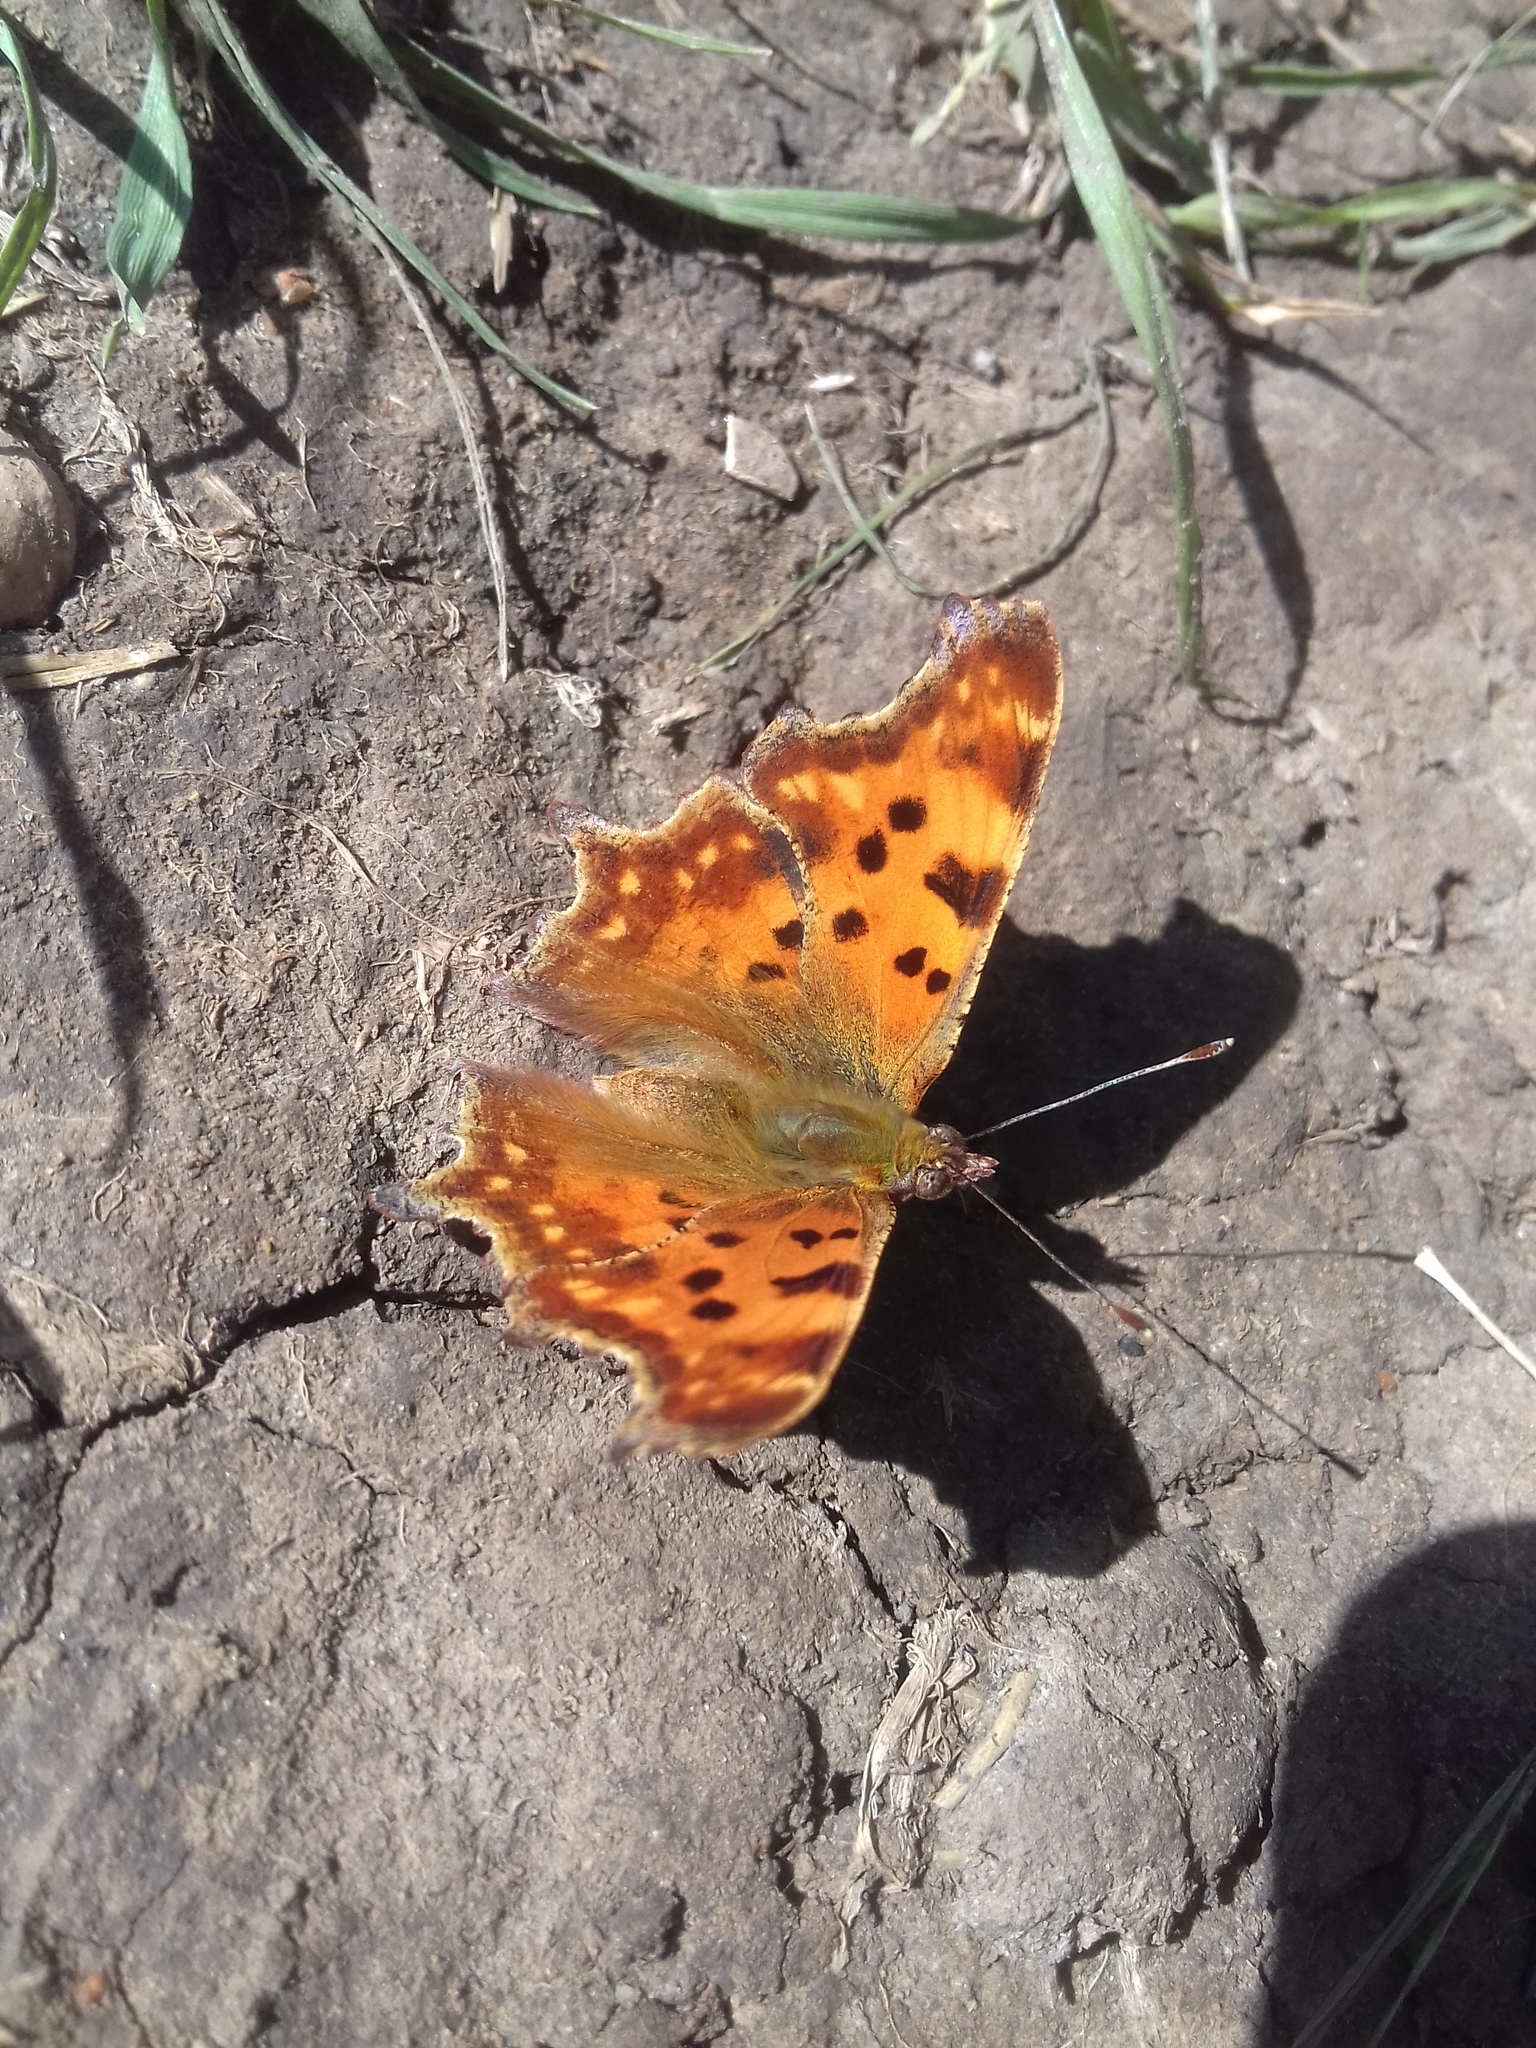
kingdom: Animalia
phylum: Arthropoda
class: Insecta
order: Lepidoptera
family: Nymphalidae
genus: Polygonia
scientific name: Polygonia c-album
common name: Comma
